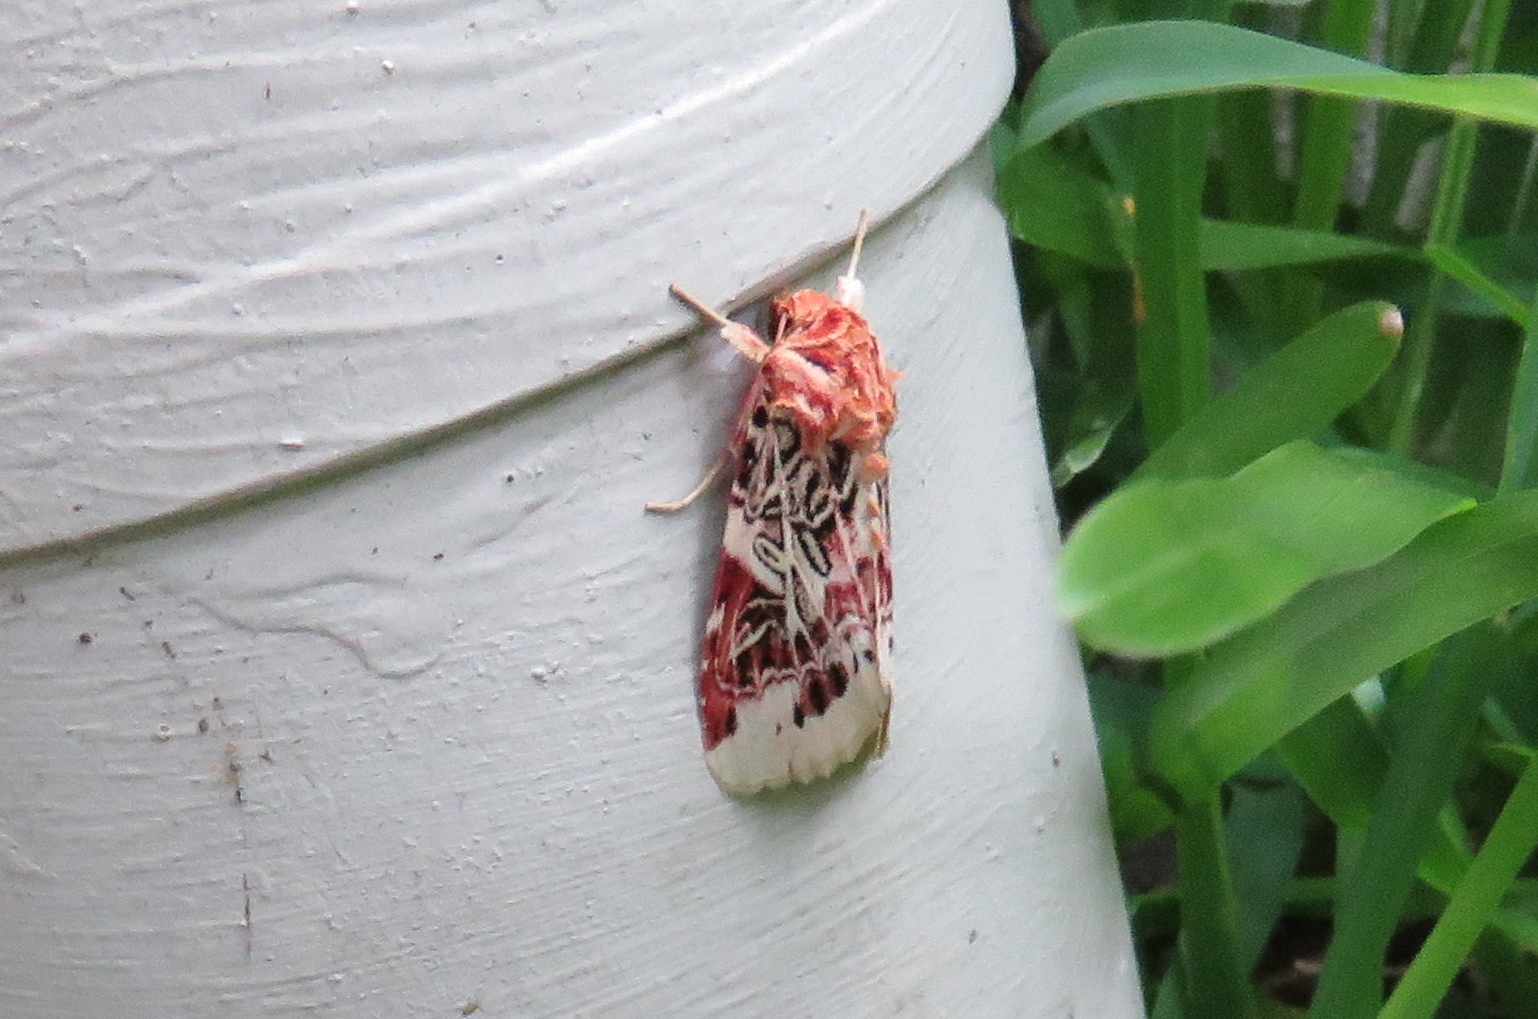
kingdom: Animalia
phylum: Arthropoda
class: Insecta
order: Lepidoptera
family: Noctuidae
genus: Spodoptera
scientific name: Spodoptera picta
